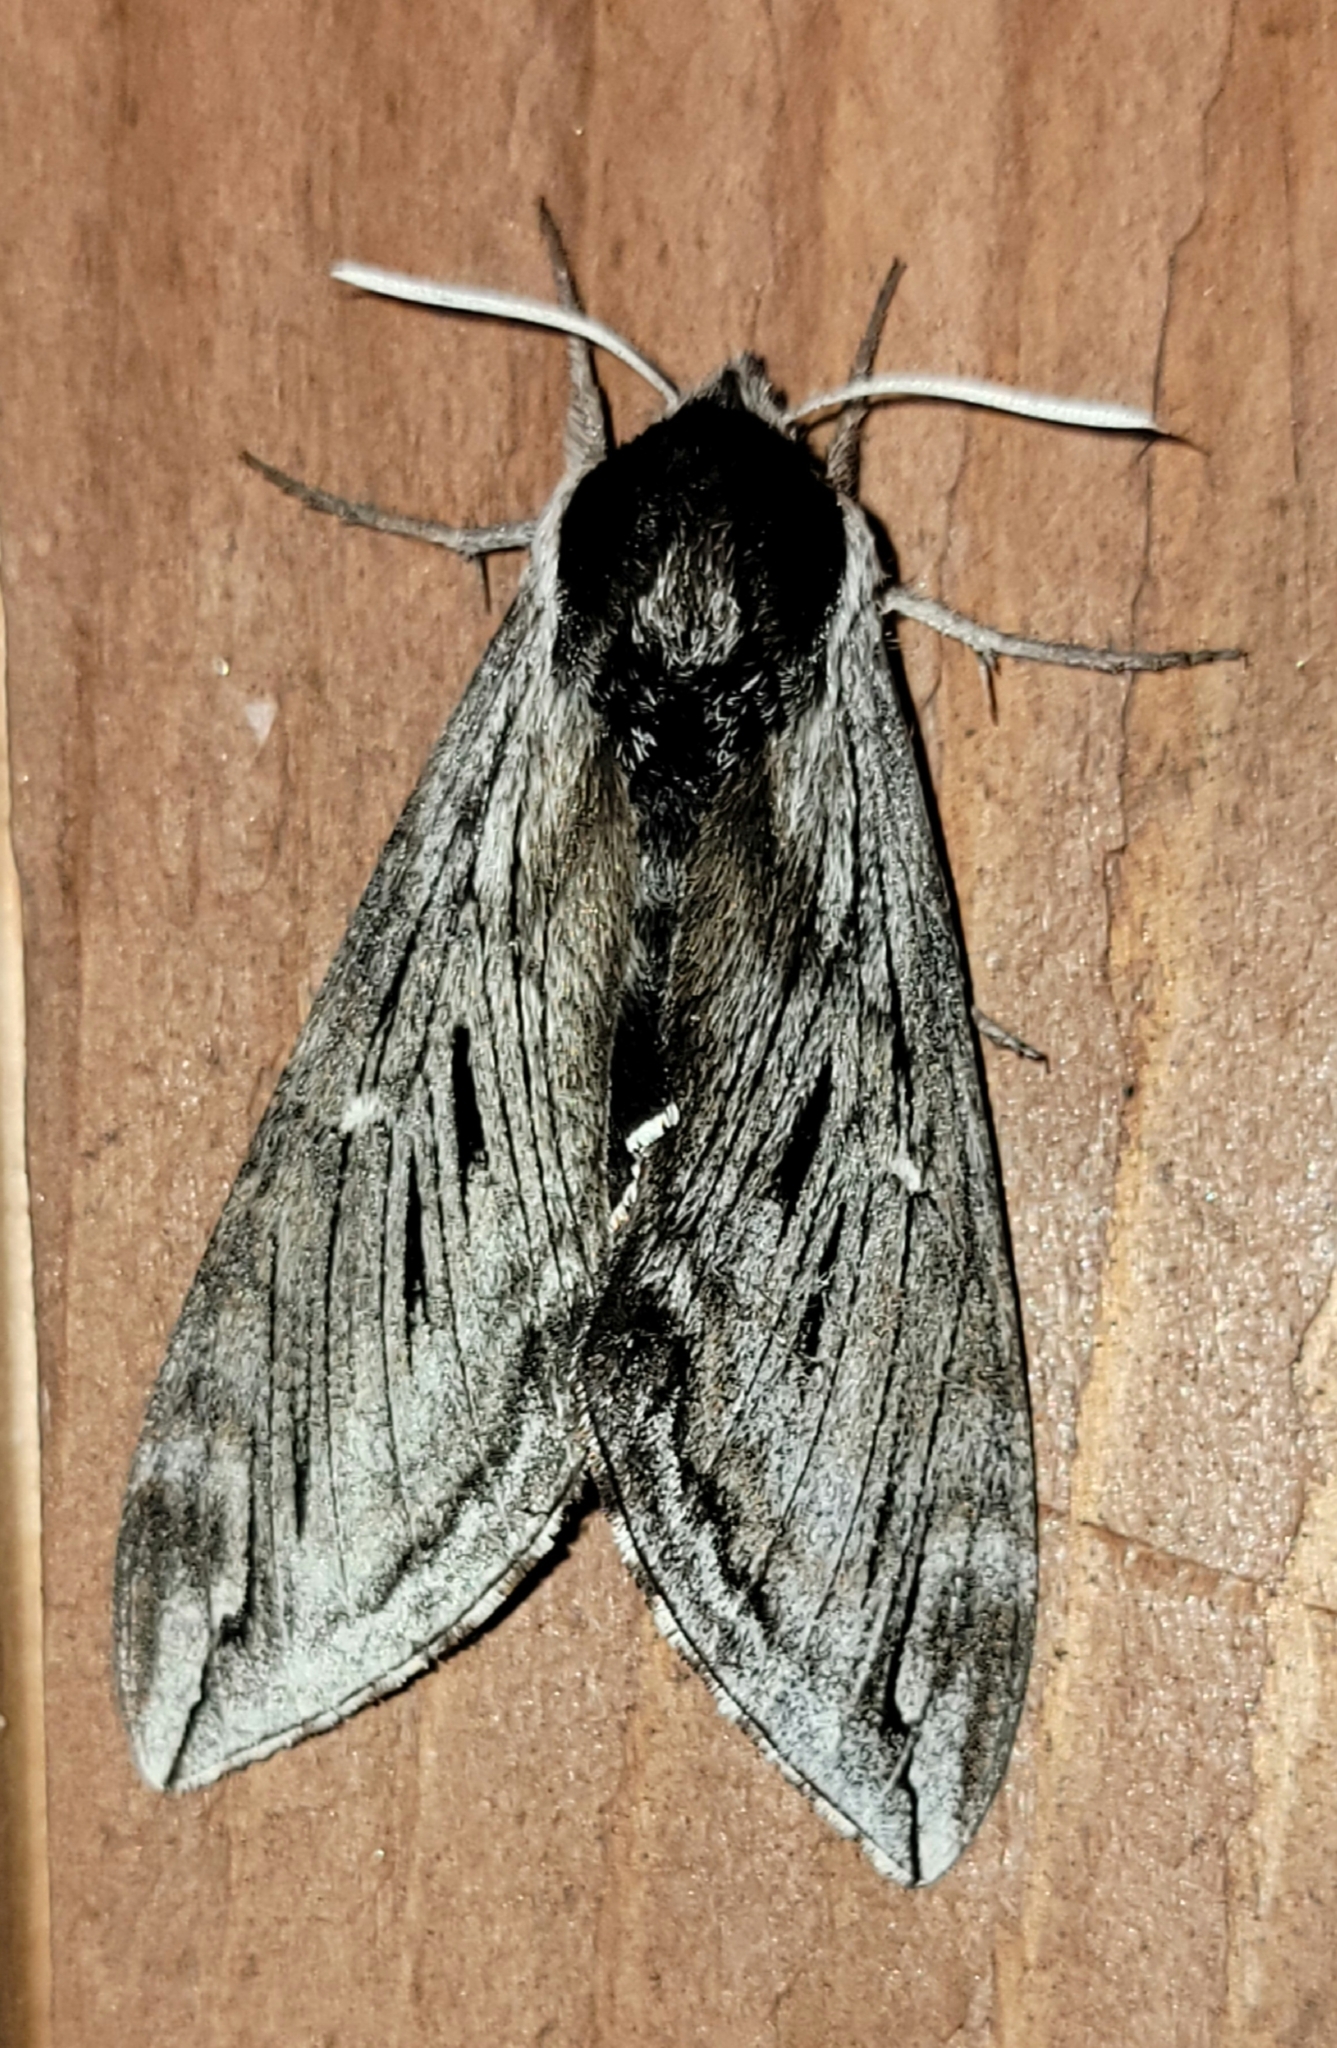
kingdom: Animalia
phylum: Arthropoda
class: Insecta
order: Lepidoptera
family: Sphingidae
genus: Sphinx
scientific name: Sphinx poecila
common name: Northern apple sphinx
